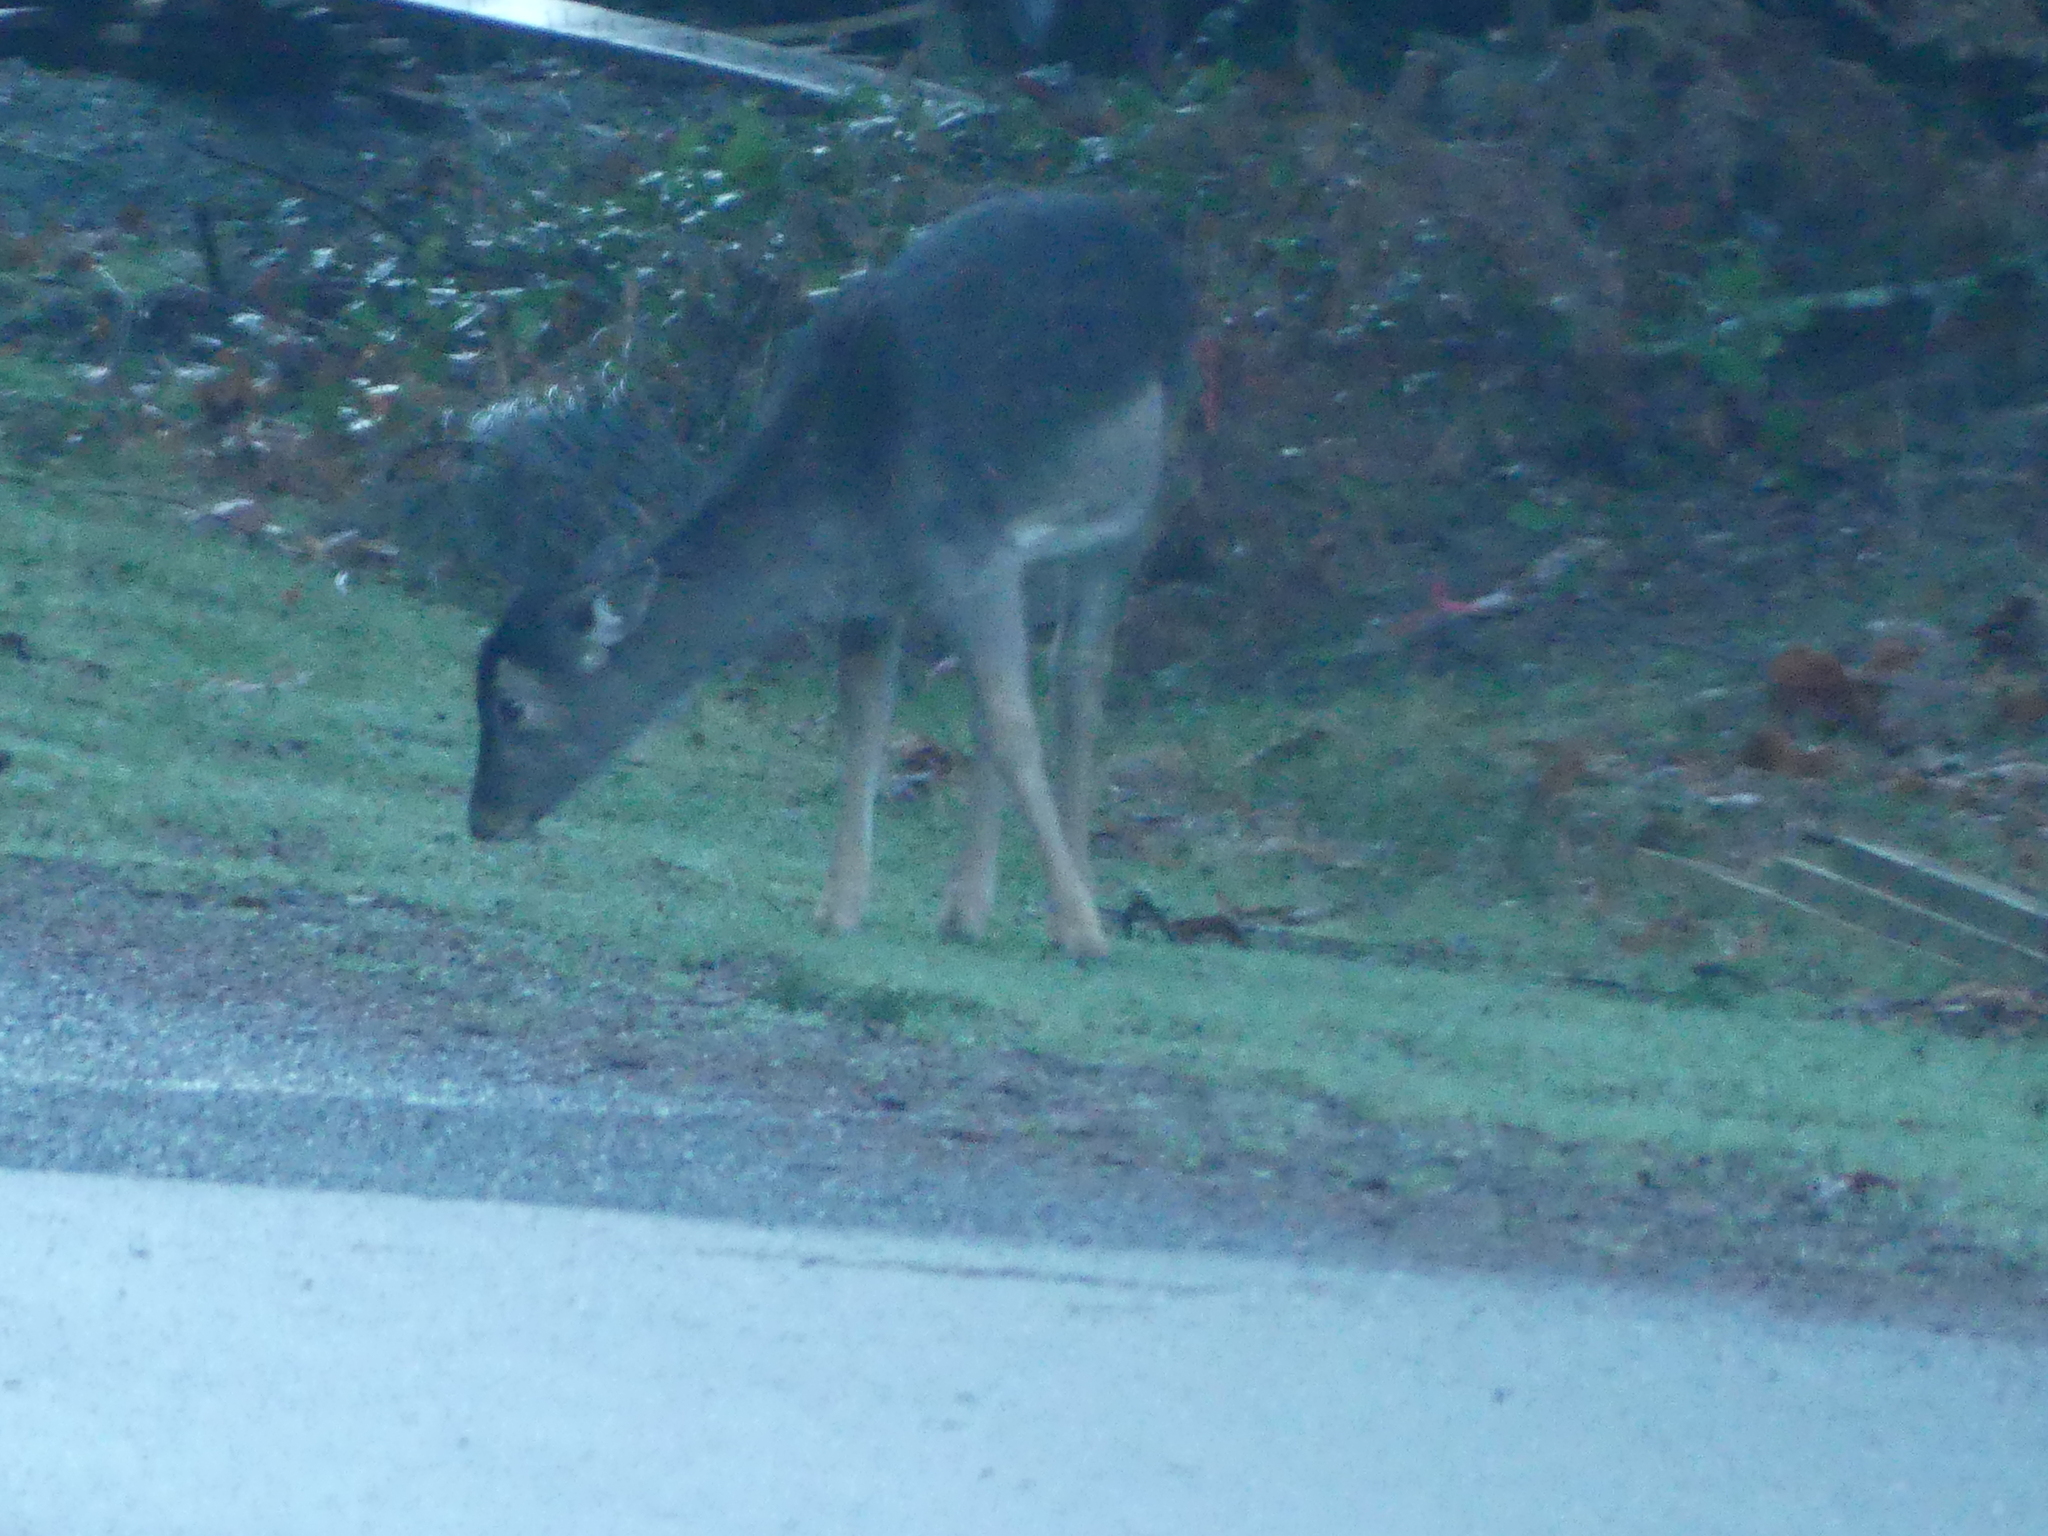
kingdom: Animalia
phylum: Chordata
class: Mammalia
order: Artiodactyla
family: Cervidae
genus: Dama
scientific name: Dama dama
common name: Fallow deer
